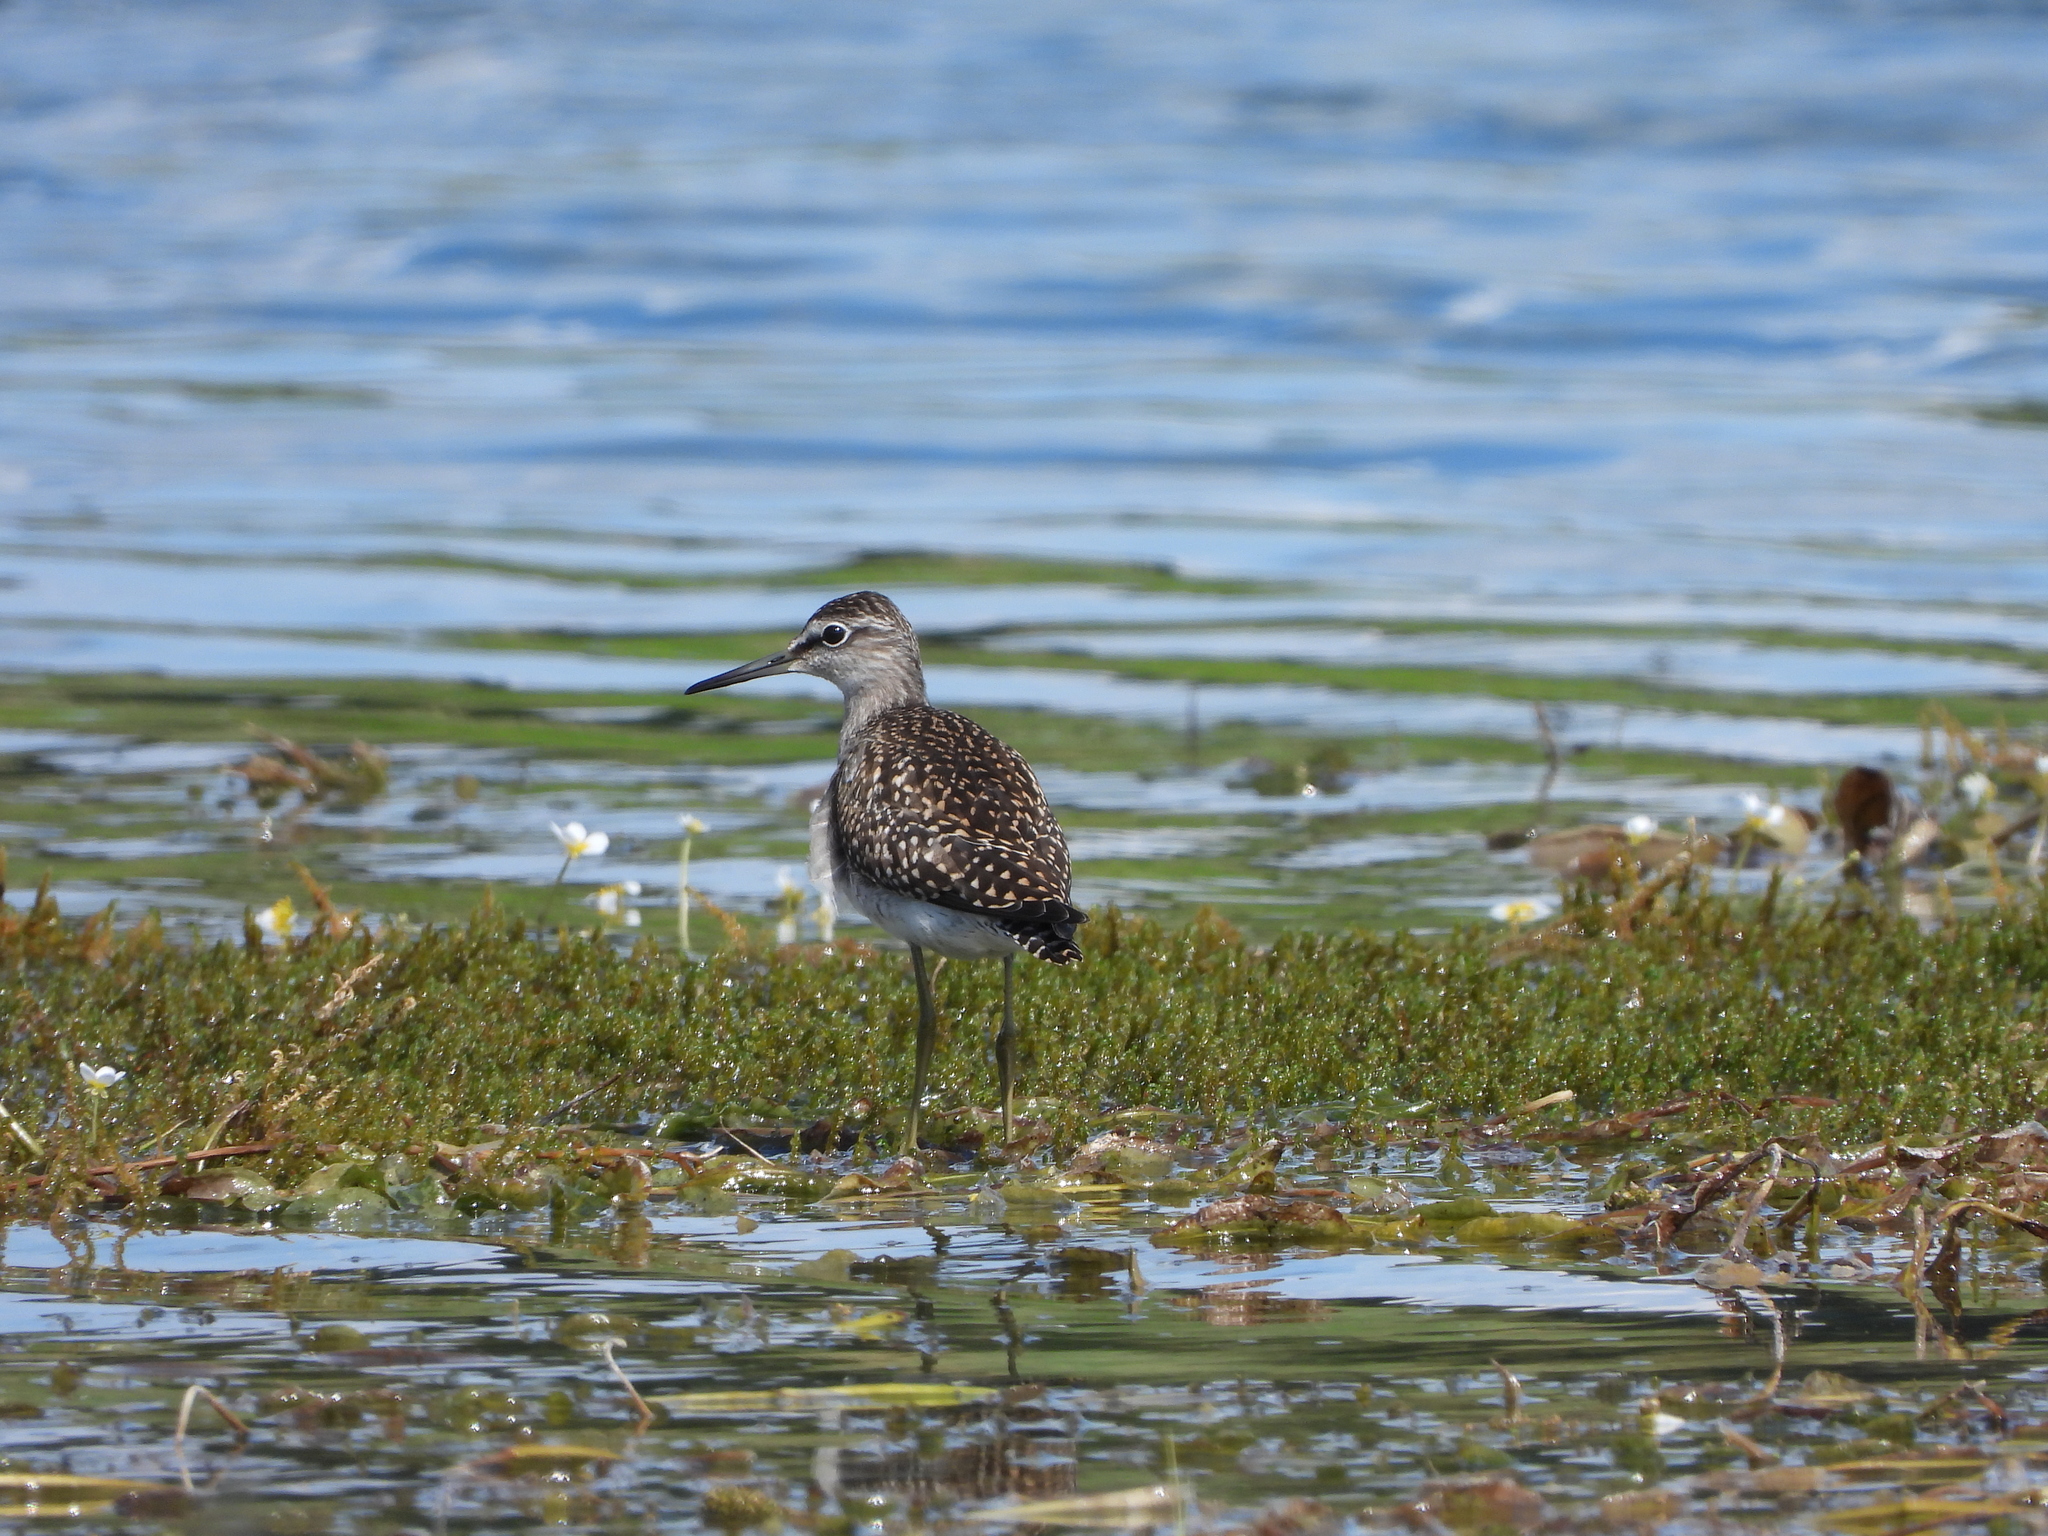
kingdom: Animalia
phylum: Chordata
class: Aves
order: Charadriiformes
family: Scolopacidae
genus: Tringa
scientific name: Tringa glareola
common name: Wood sandpiper
